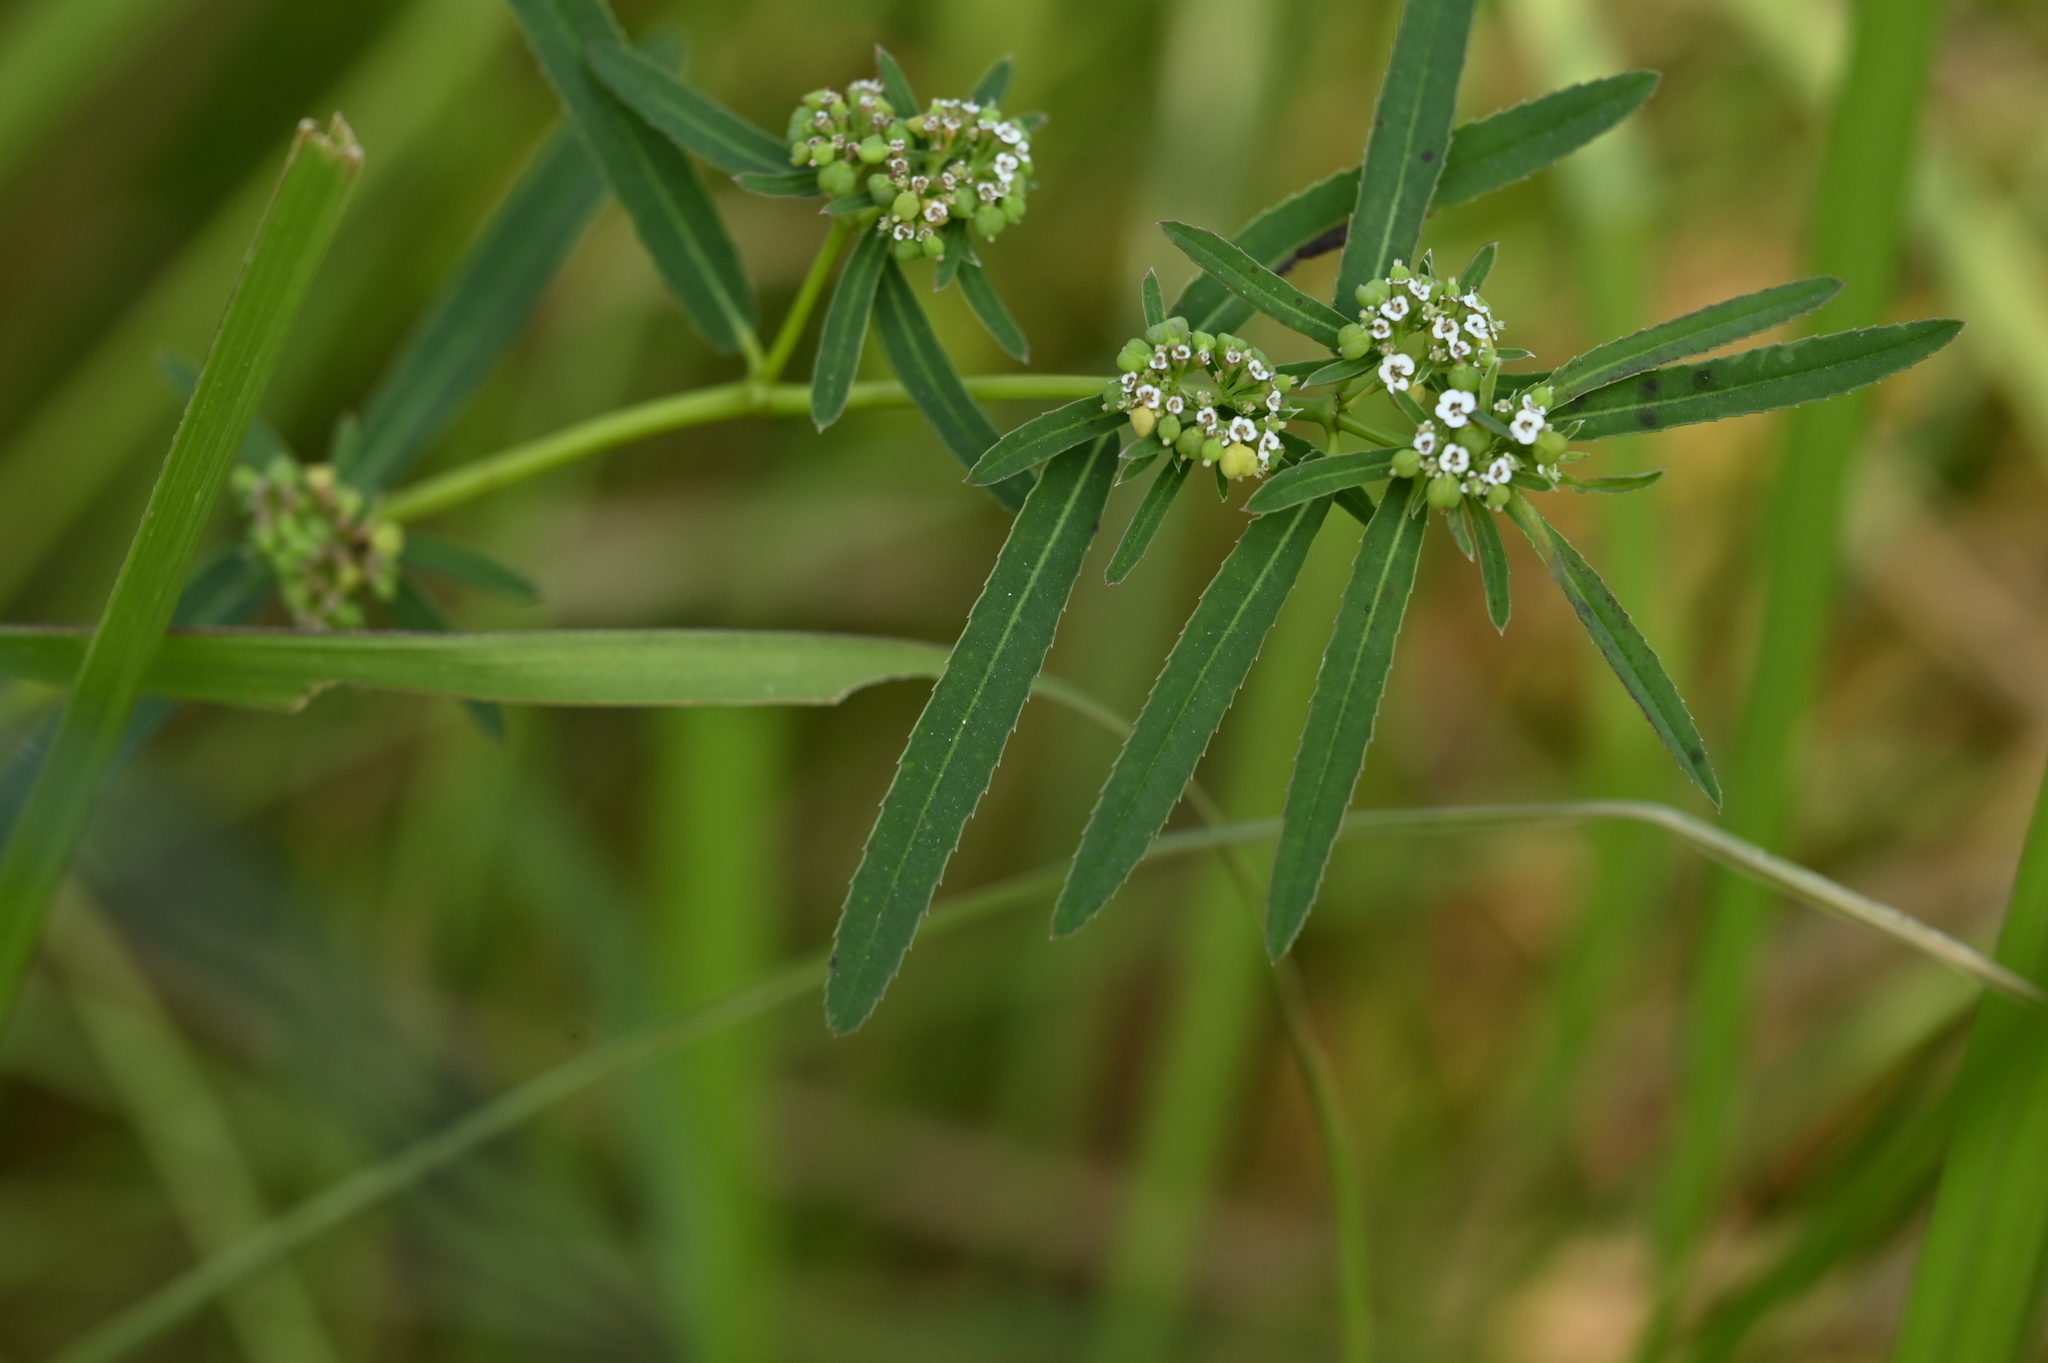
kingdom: Plantae
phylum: Tracheophyta
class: Magnoliopsida
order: Malpighiales
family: Euphorbiaceae
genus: Euphorbia
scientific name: Euphorbia bifida
